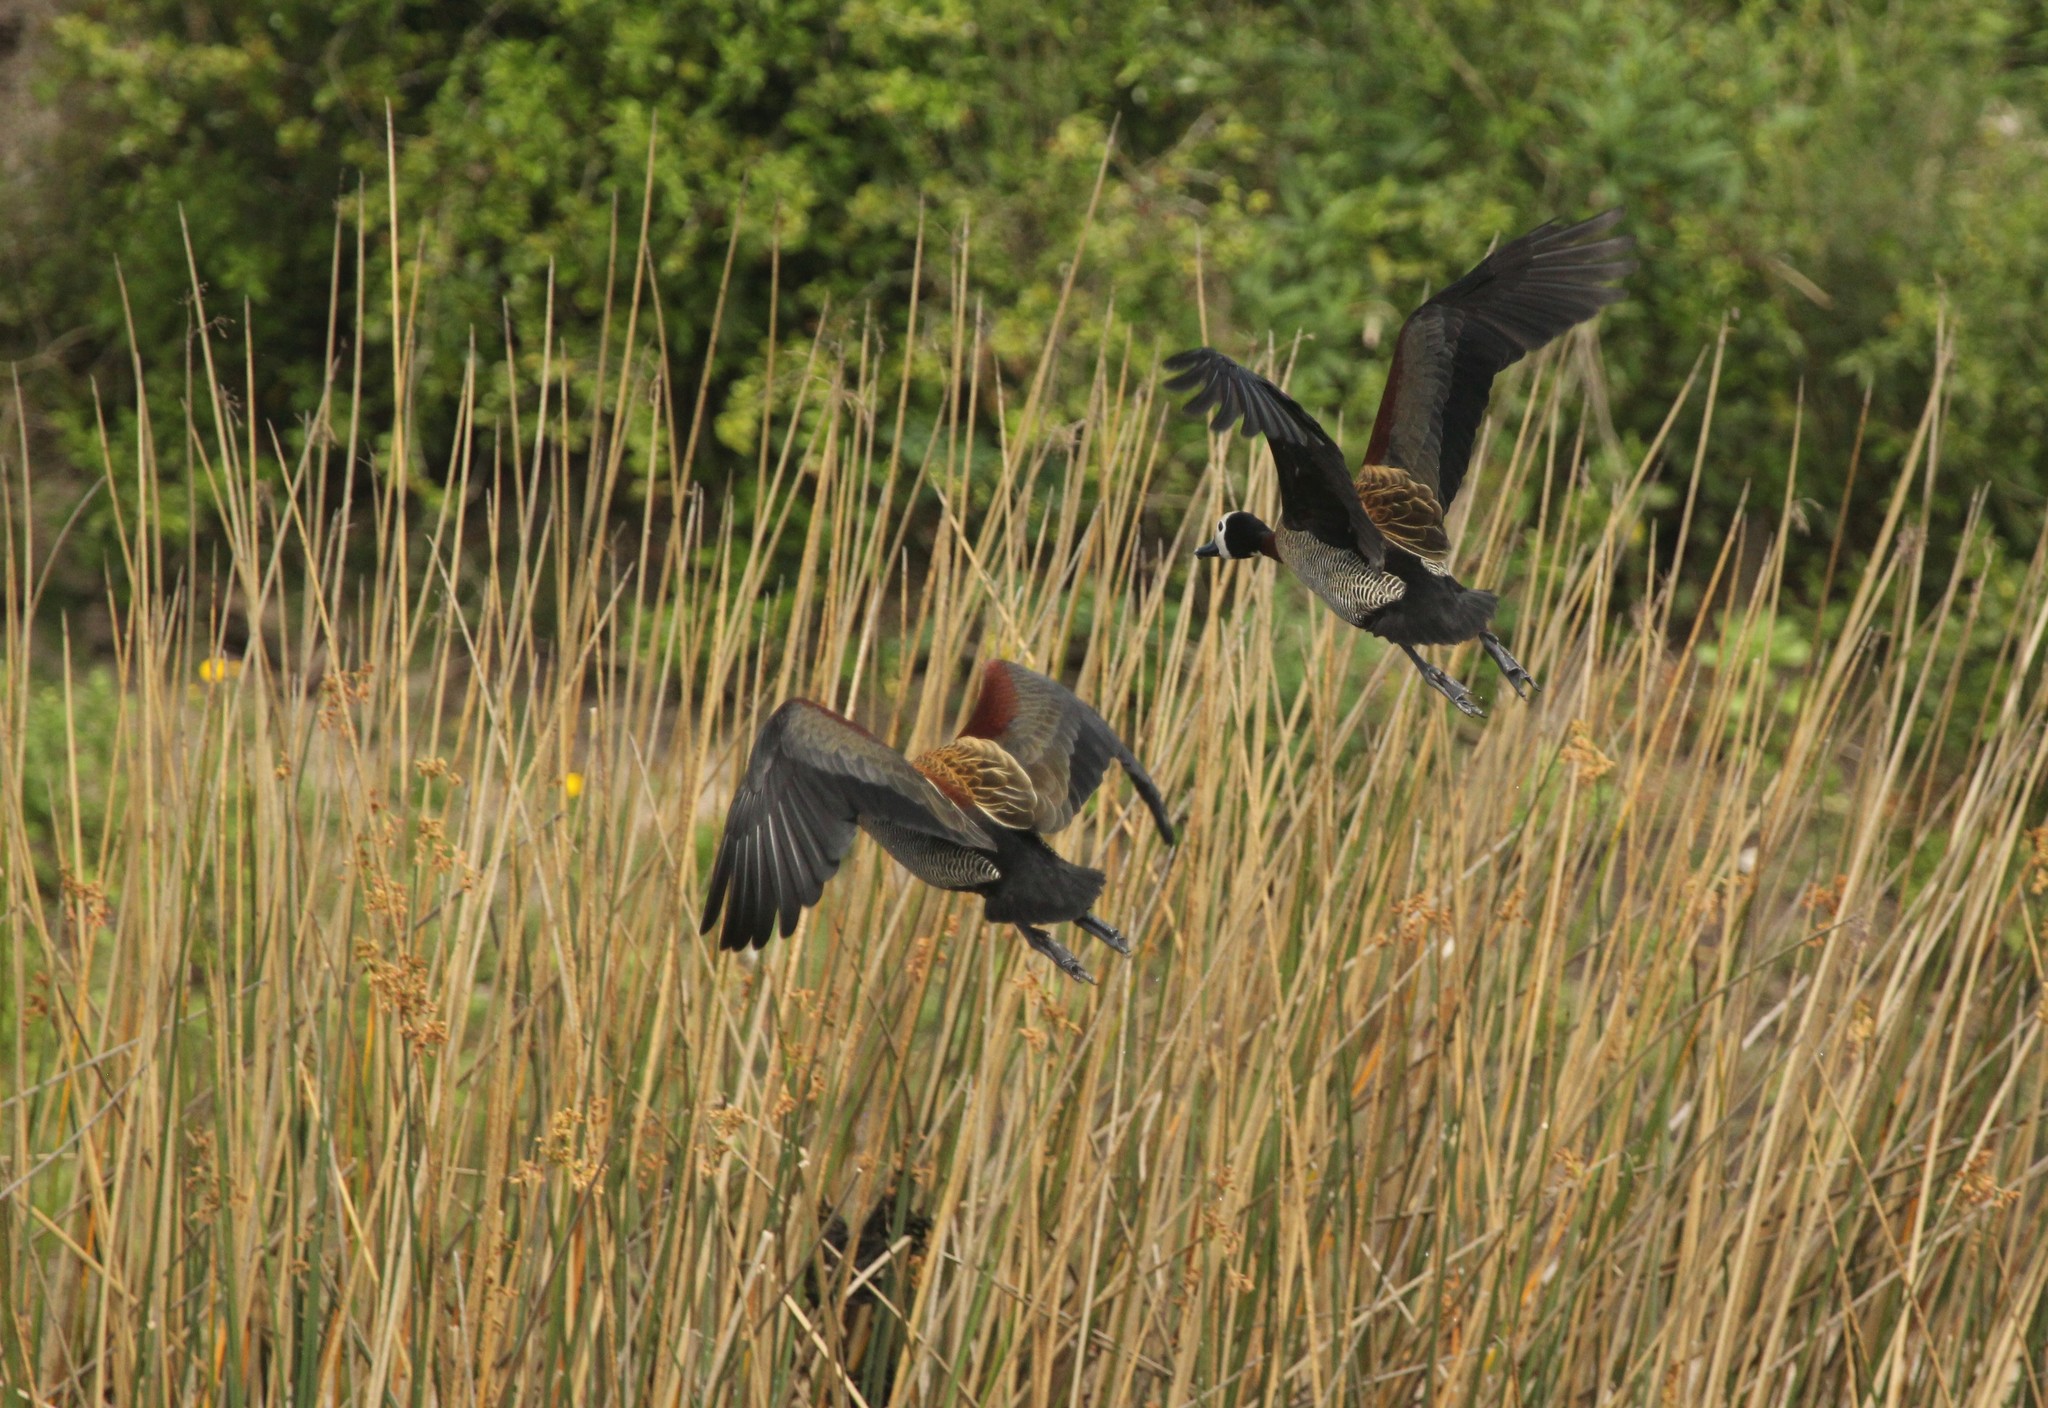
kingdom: Animalia
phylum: Chordata
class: Aves
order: Anseriformes
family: Anatidae
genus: Dendrocygna
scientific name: Dendrocygna viduata
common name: White-faced whistling duck
